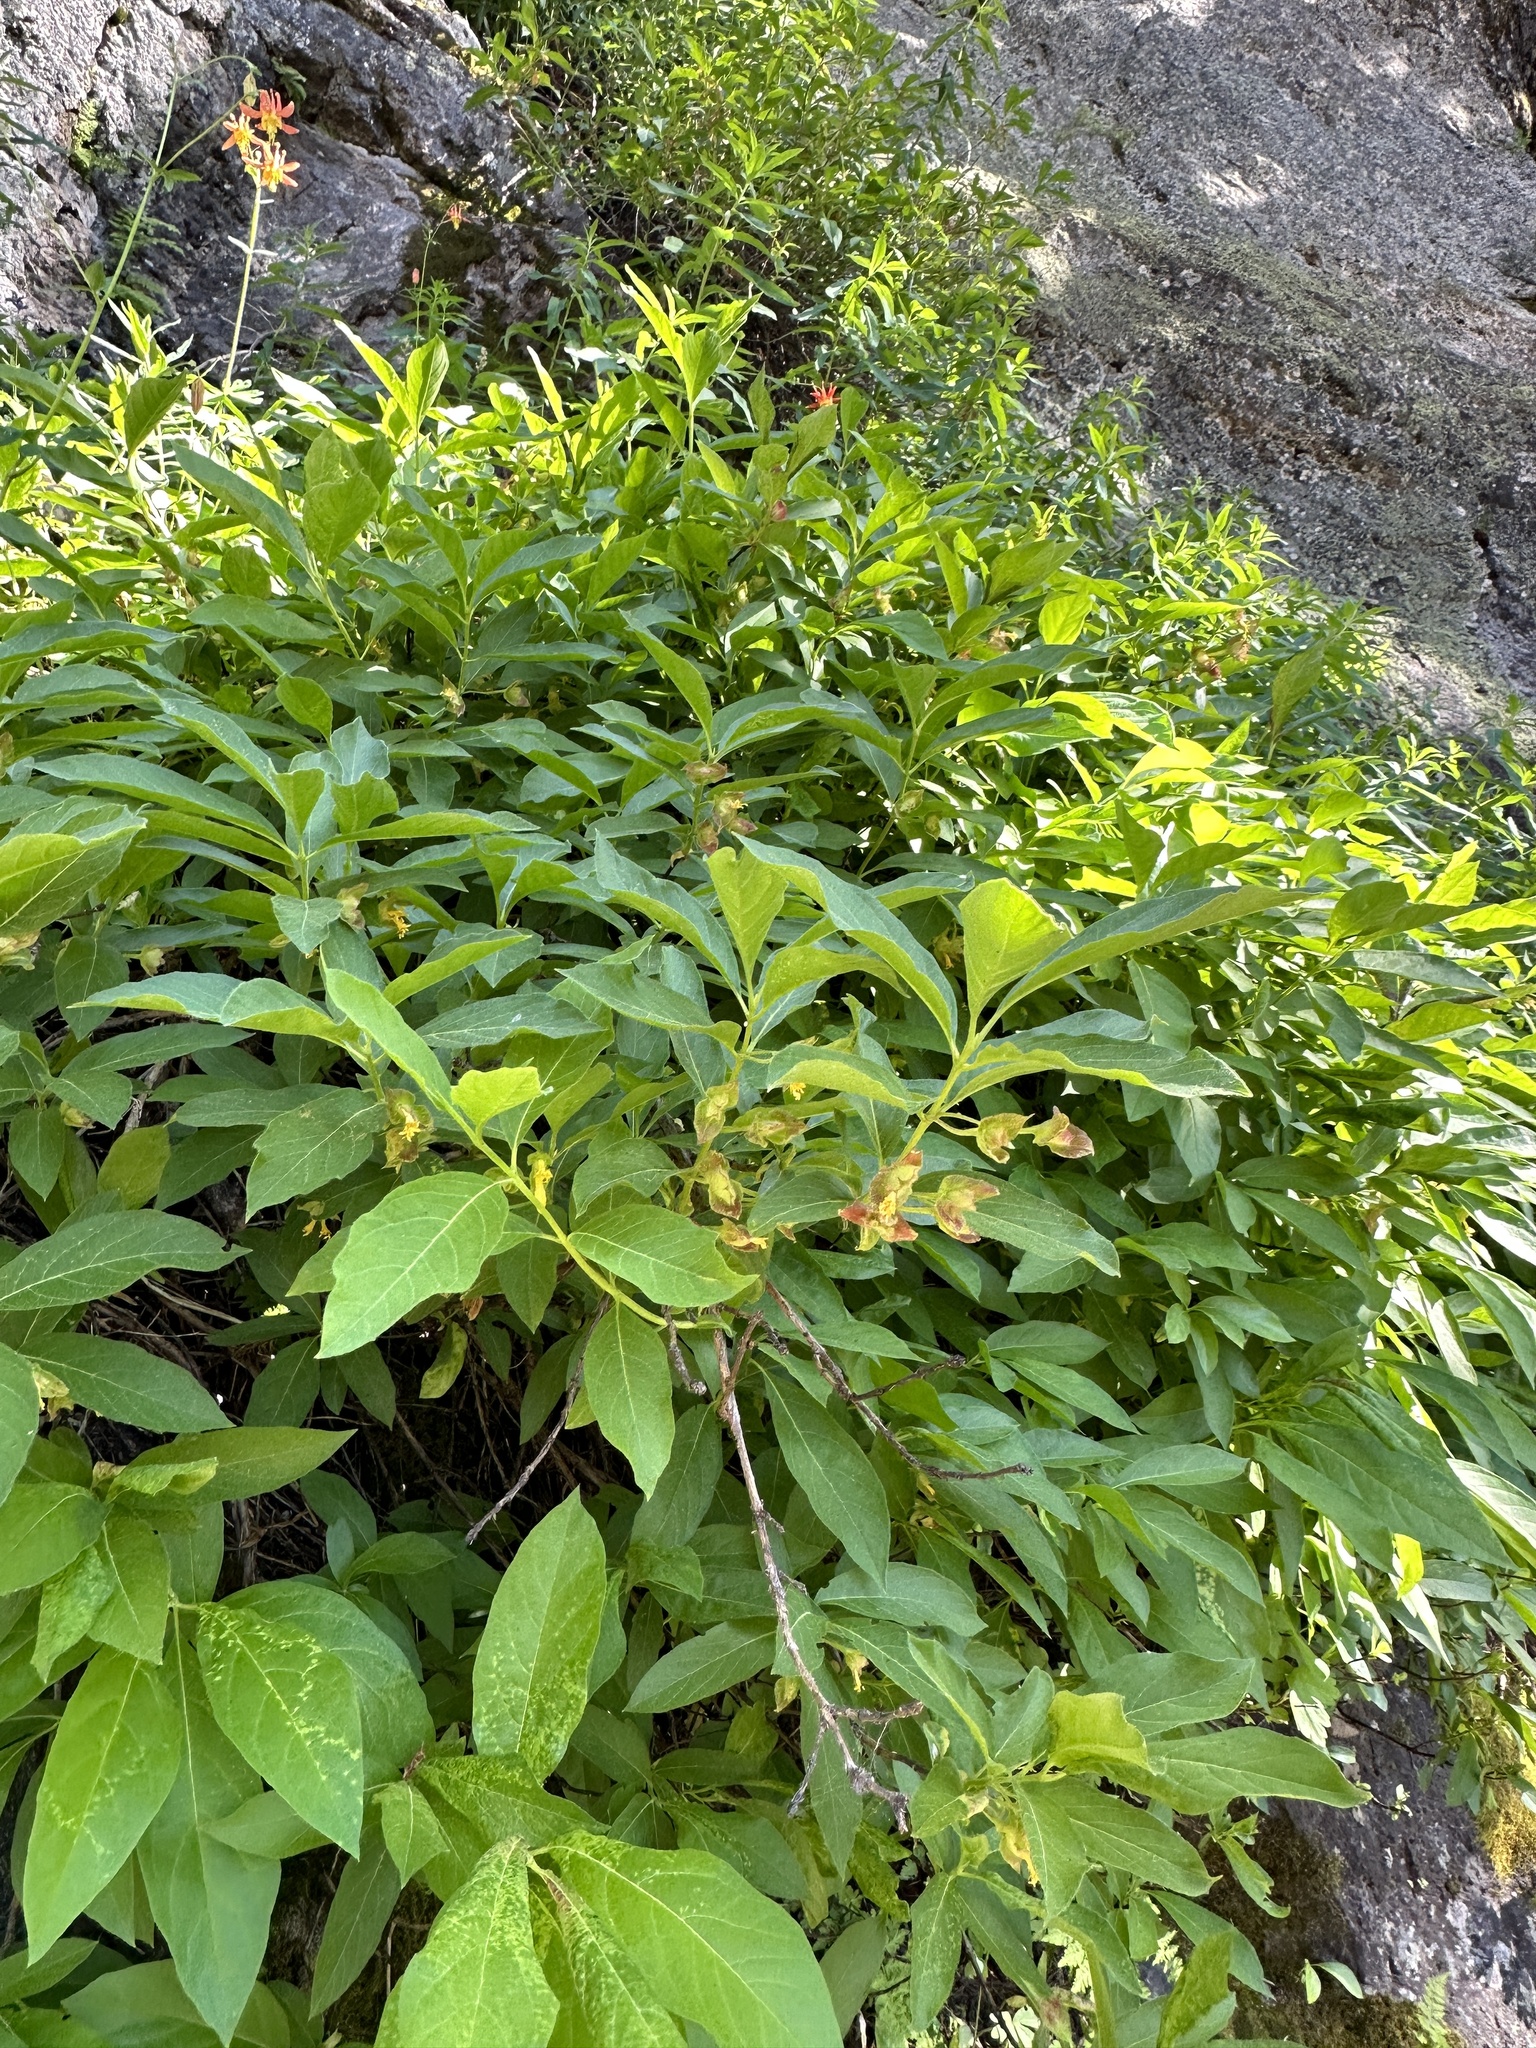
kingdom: Plantae
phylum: Tracheophyta
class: Magnoliopsida
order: Dipsacales
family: Caprifoliaceae
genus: Lonicera
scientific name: Lonicera involucrata
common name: Californian honeysuckle
